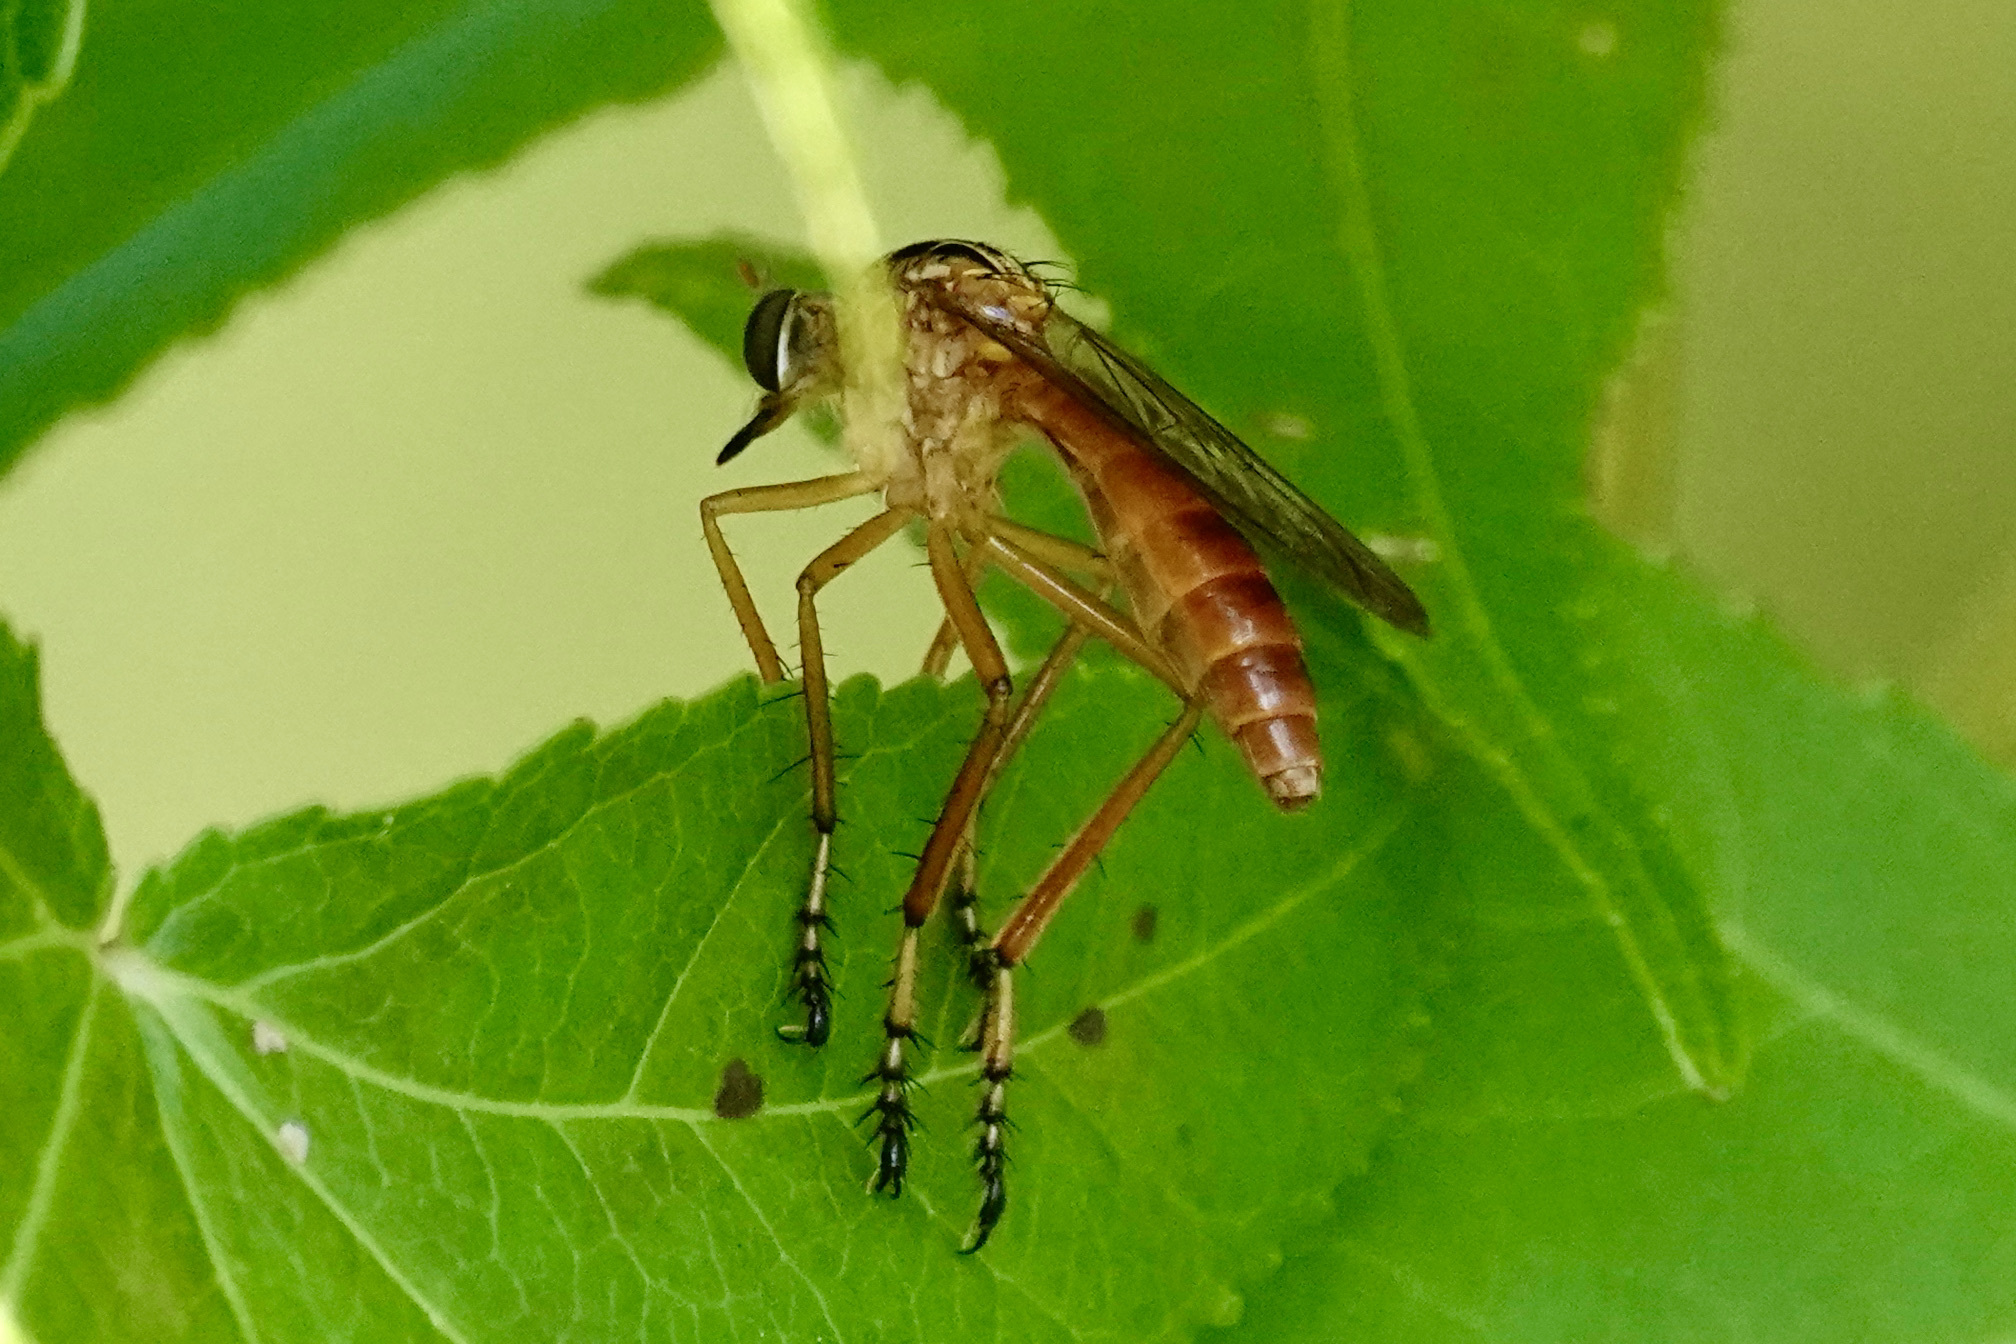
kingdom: Animalia
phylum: Arthropoda
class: Insecta
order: Diptera
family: Asilidae
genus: Diogmites
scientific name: Diogmites neoternatus
